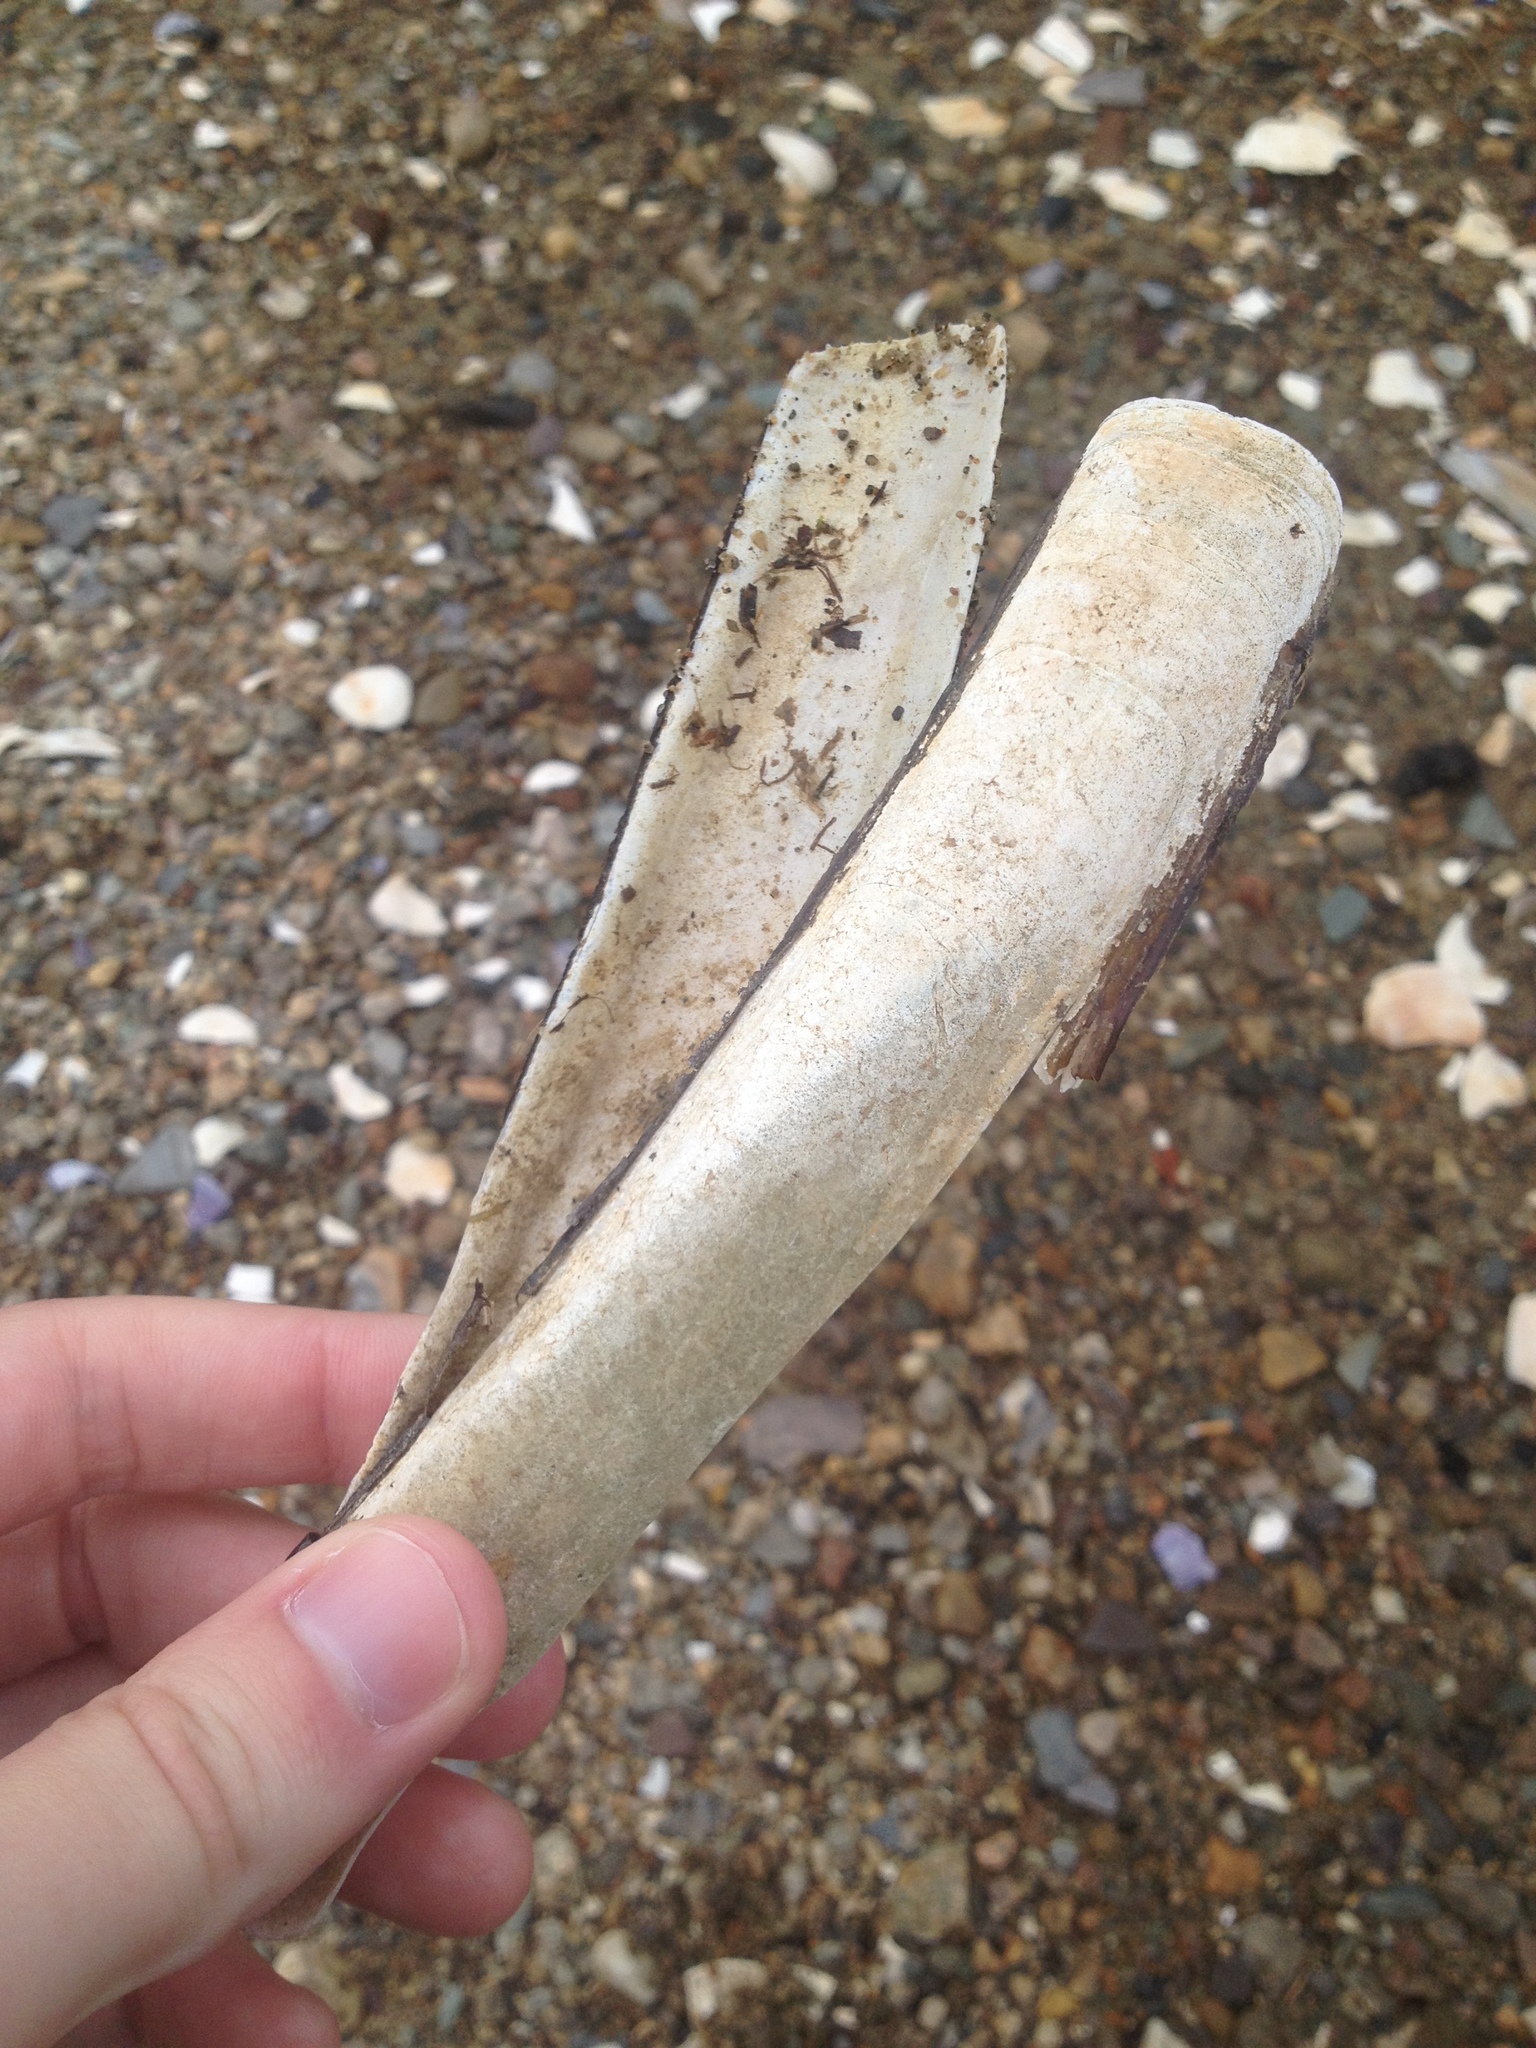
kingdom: Animalia
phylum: Mollusca
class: Bivalvia
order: Adapedonta
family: Pharidae
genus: Ensis
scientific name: Ensis leei
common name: American jack knife clam
